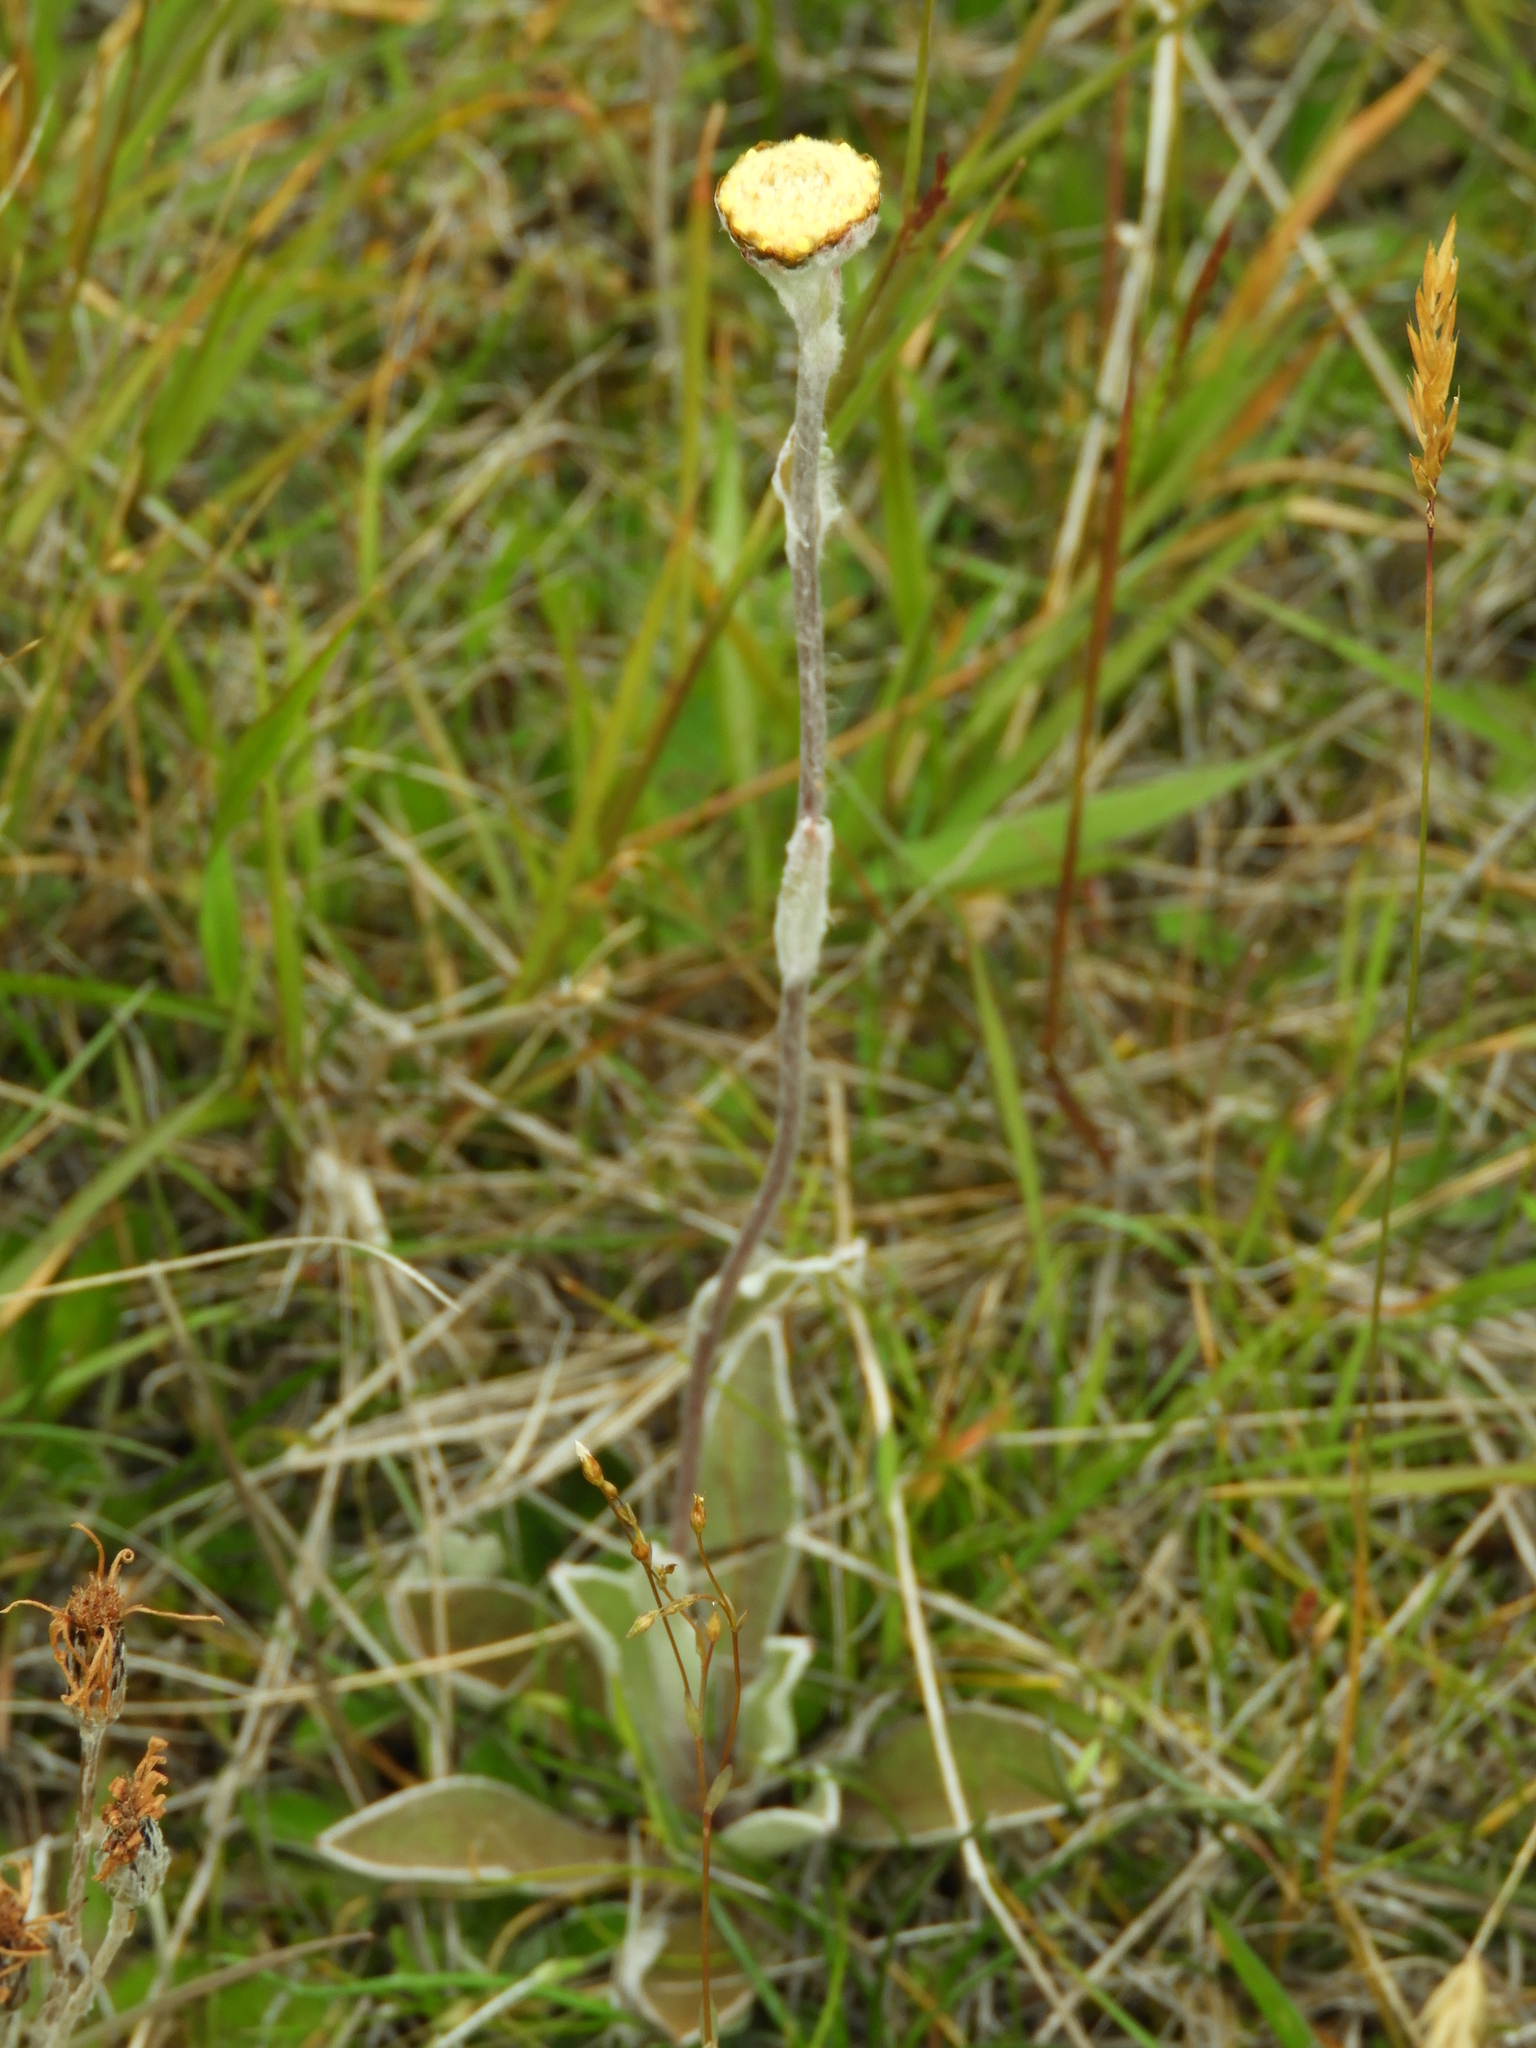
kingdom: Plantae
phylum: Tracheophyta
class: Magnoliopsida
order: Asterales
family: Asteraceae
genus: Craspedia
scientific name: Craspedia uniflora
